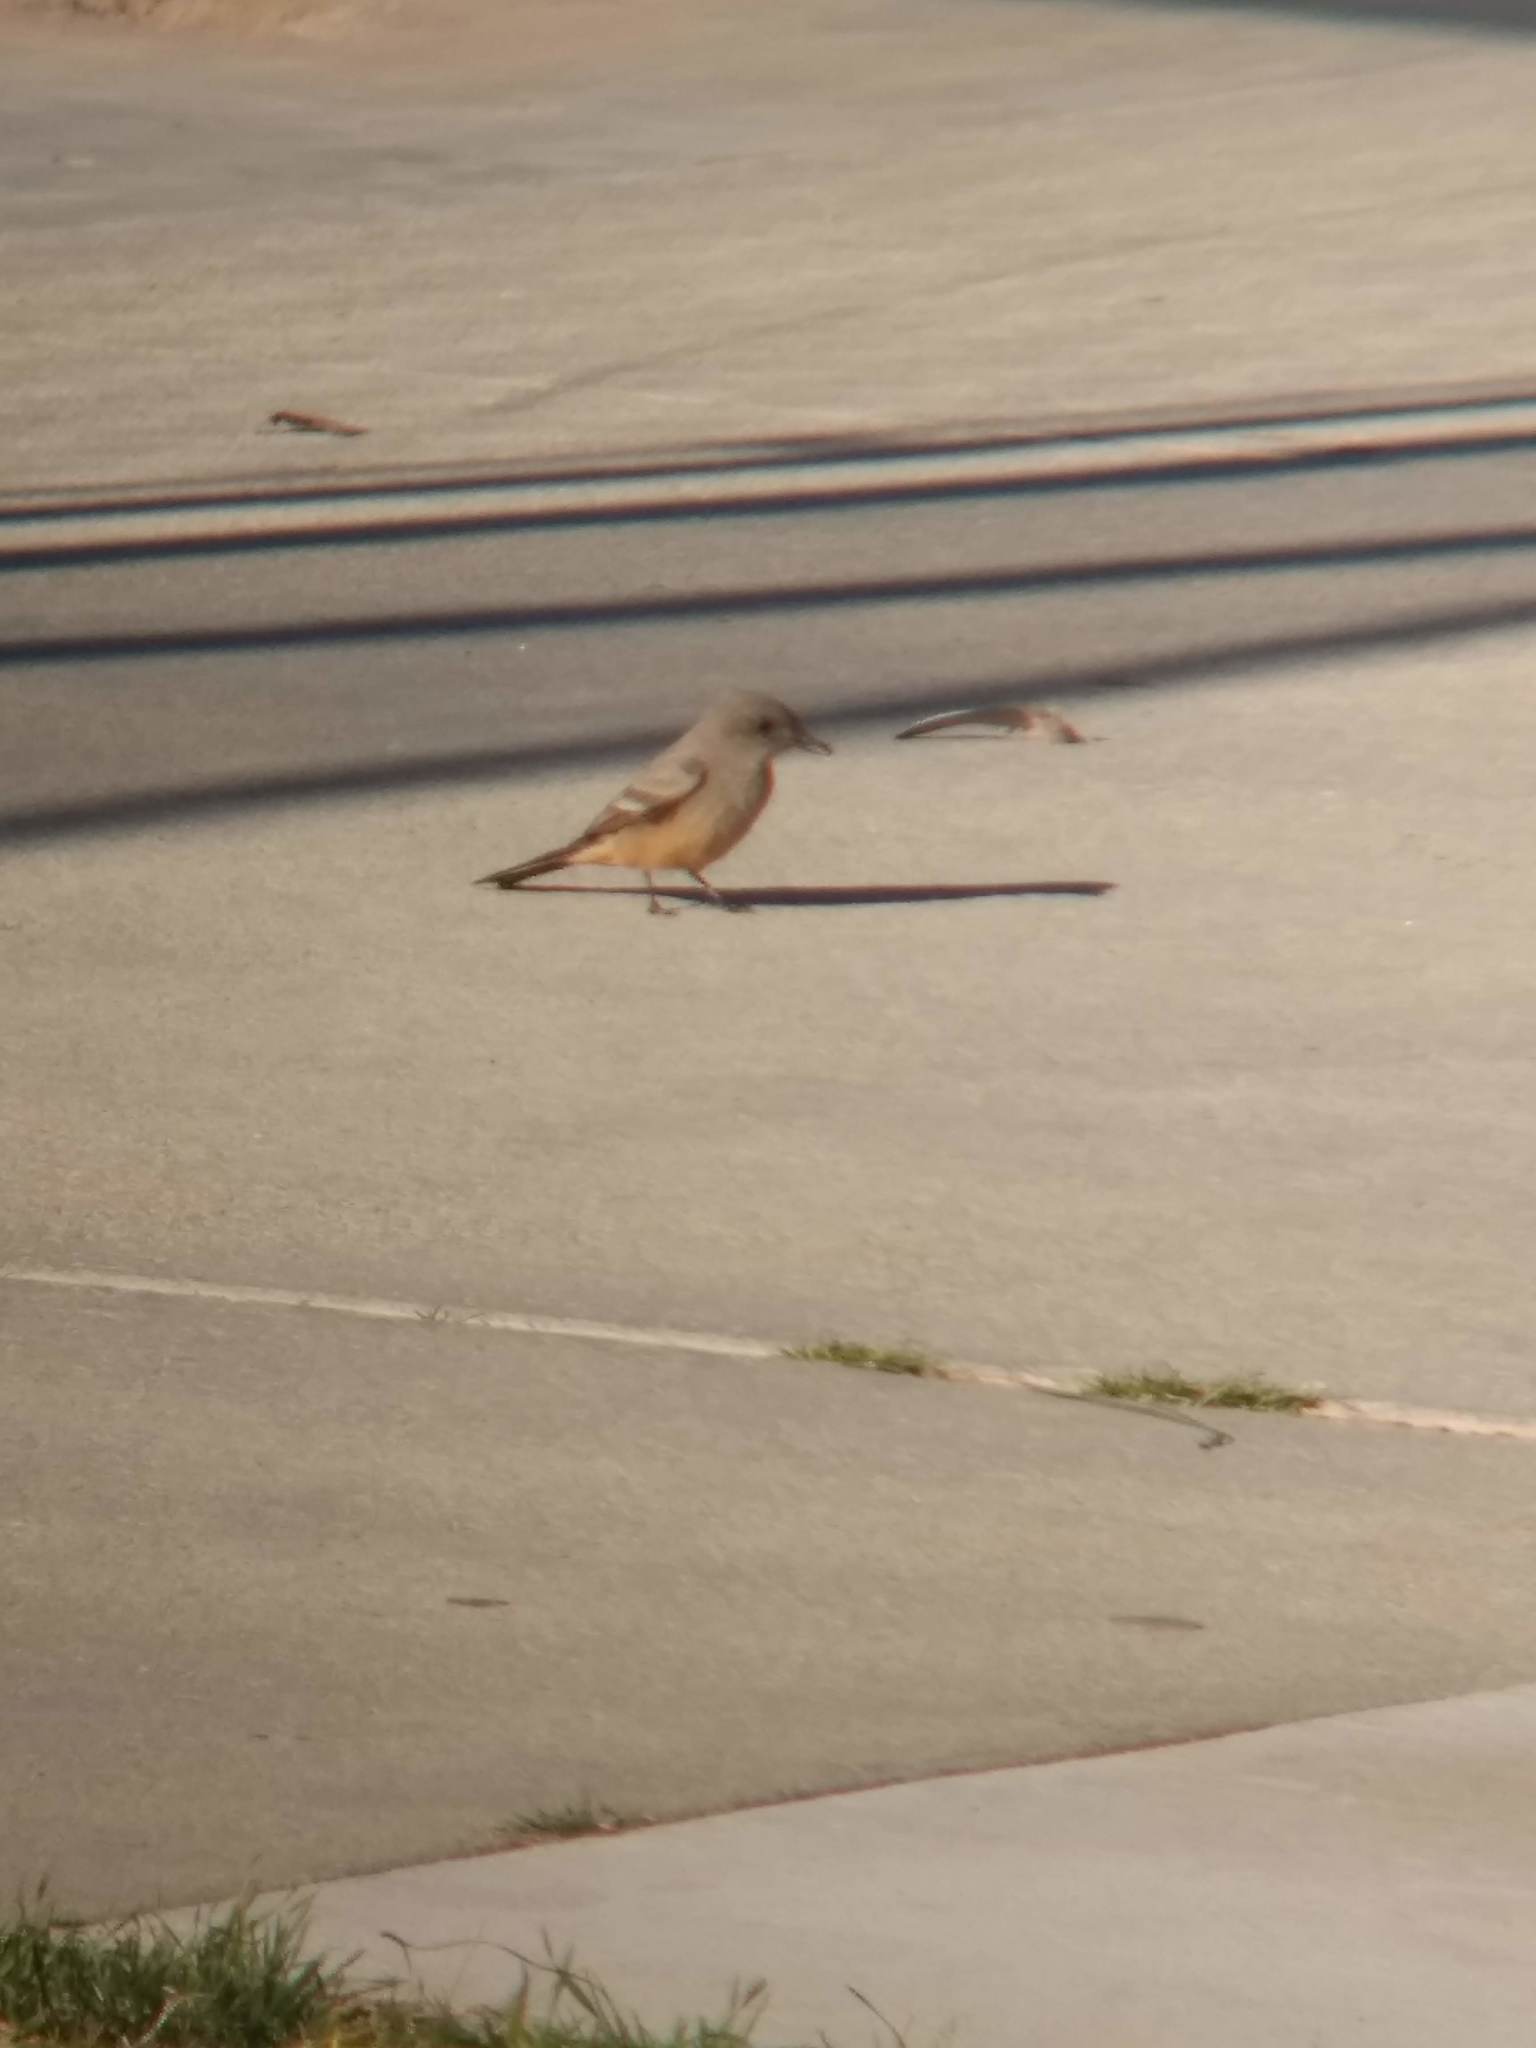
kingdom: Animalia
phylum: Chordata
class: Aves
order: Passeriformes
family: Tyrannidae
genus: Sayornis
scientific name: Sayornis saya
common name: Say's phoebe
